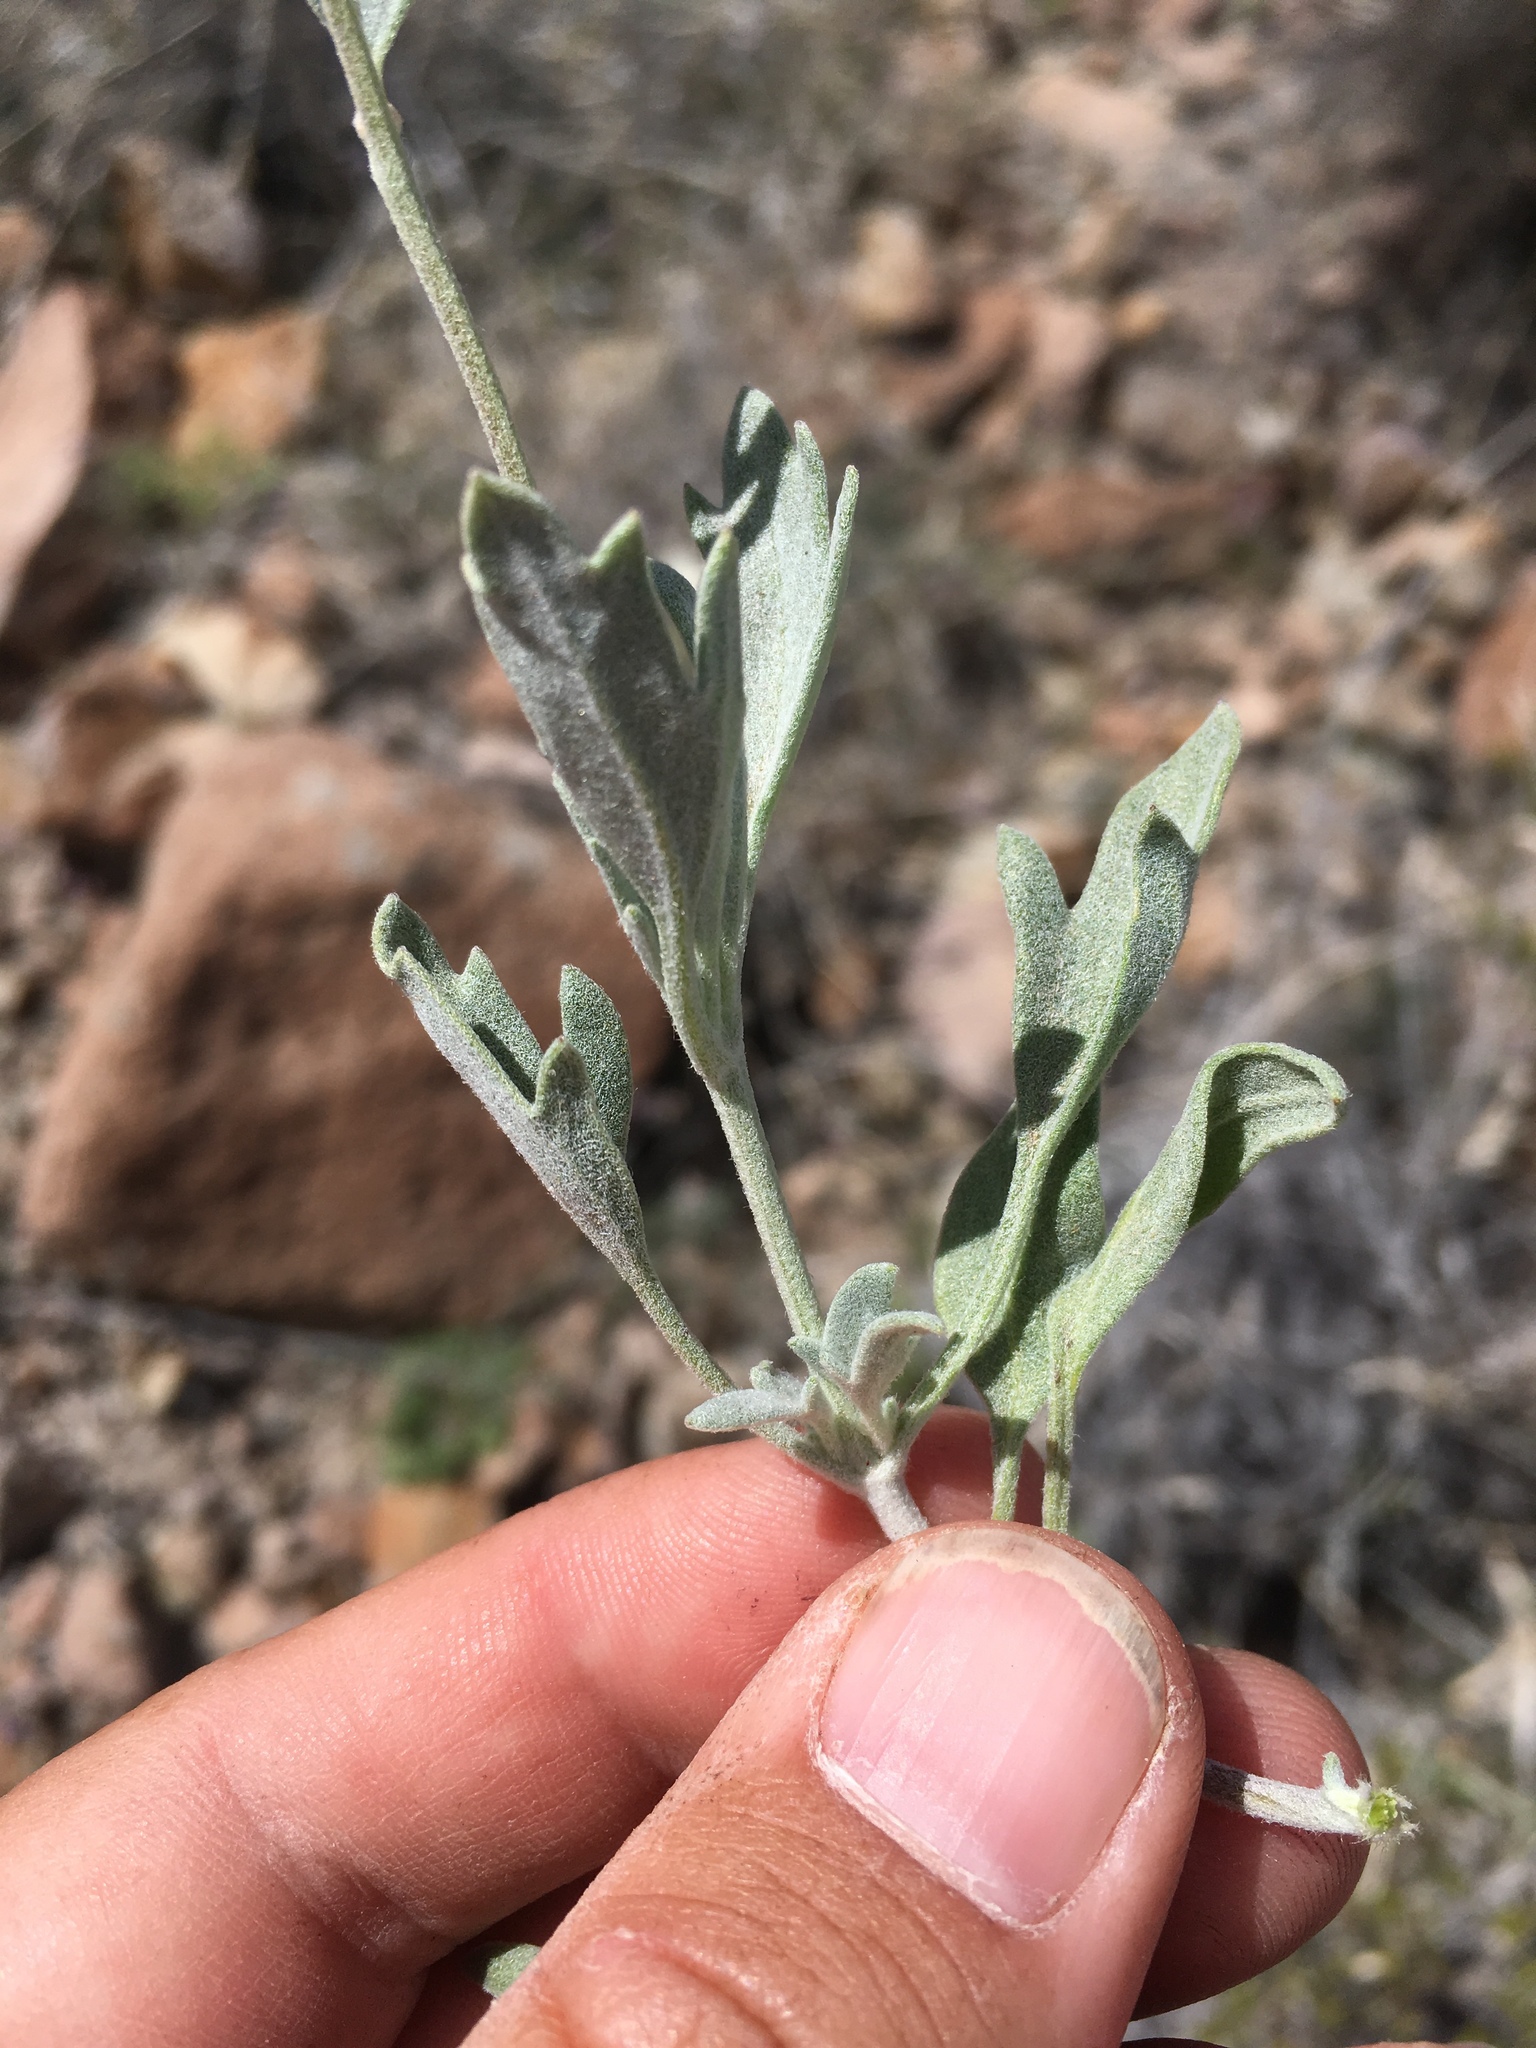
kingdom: Plantae
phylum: Tracheophyta
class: Magnoliopsida
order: Asterales
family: Asteraceae
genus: Picradeniopsis
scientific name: Picradeniopsis absinthifolia
